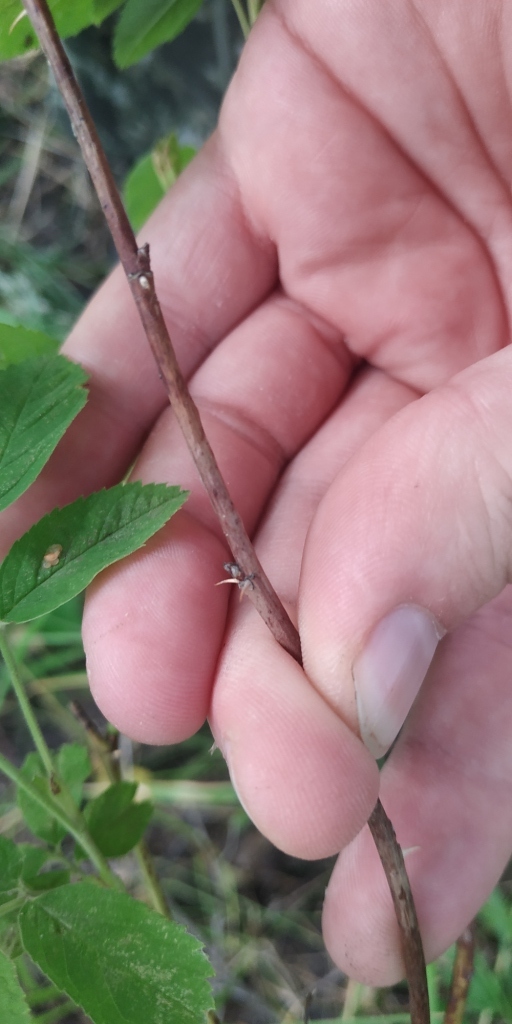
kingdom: Plantae
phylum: Tracheophyta
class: Magnoliopsida
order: Rosales
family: Rosaceae
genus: Rosa
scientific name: Rosa majalis
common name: Cinnamon rose
